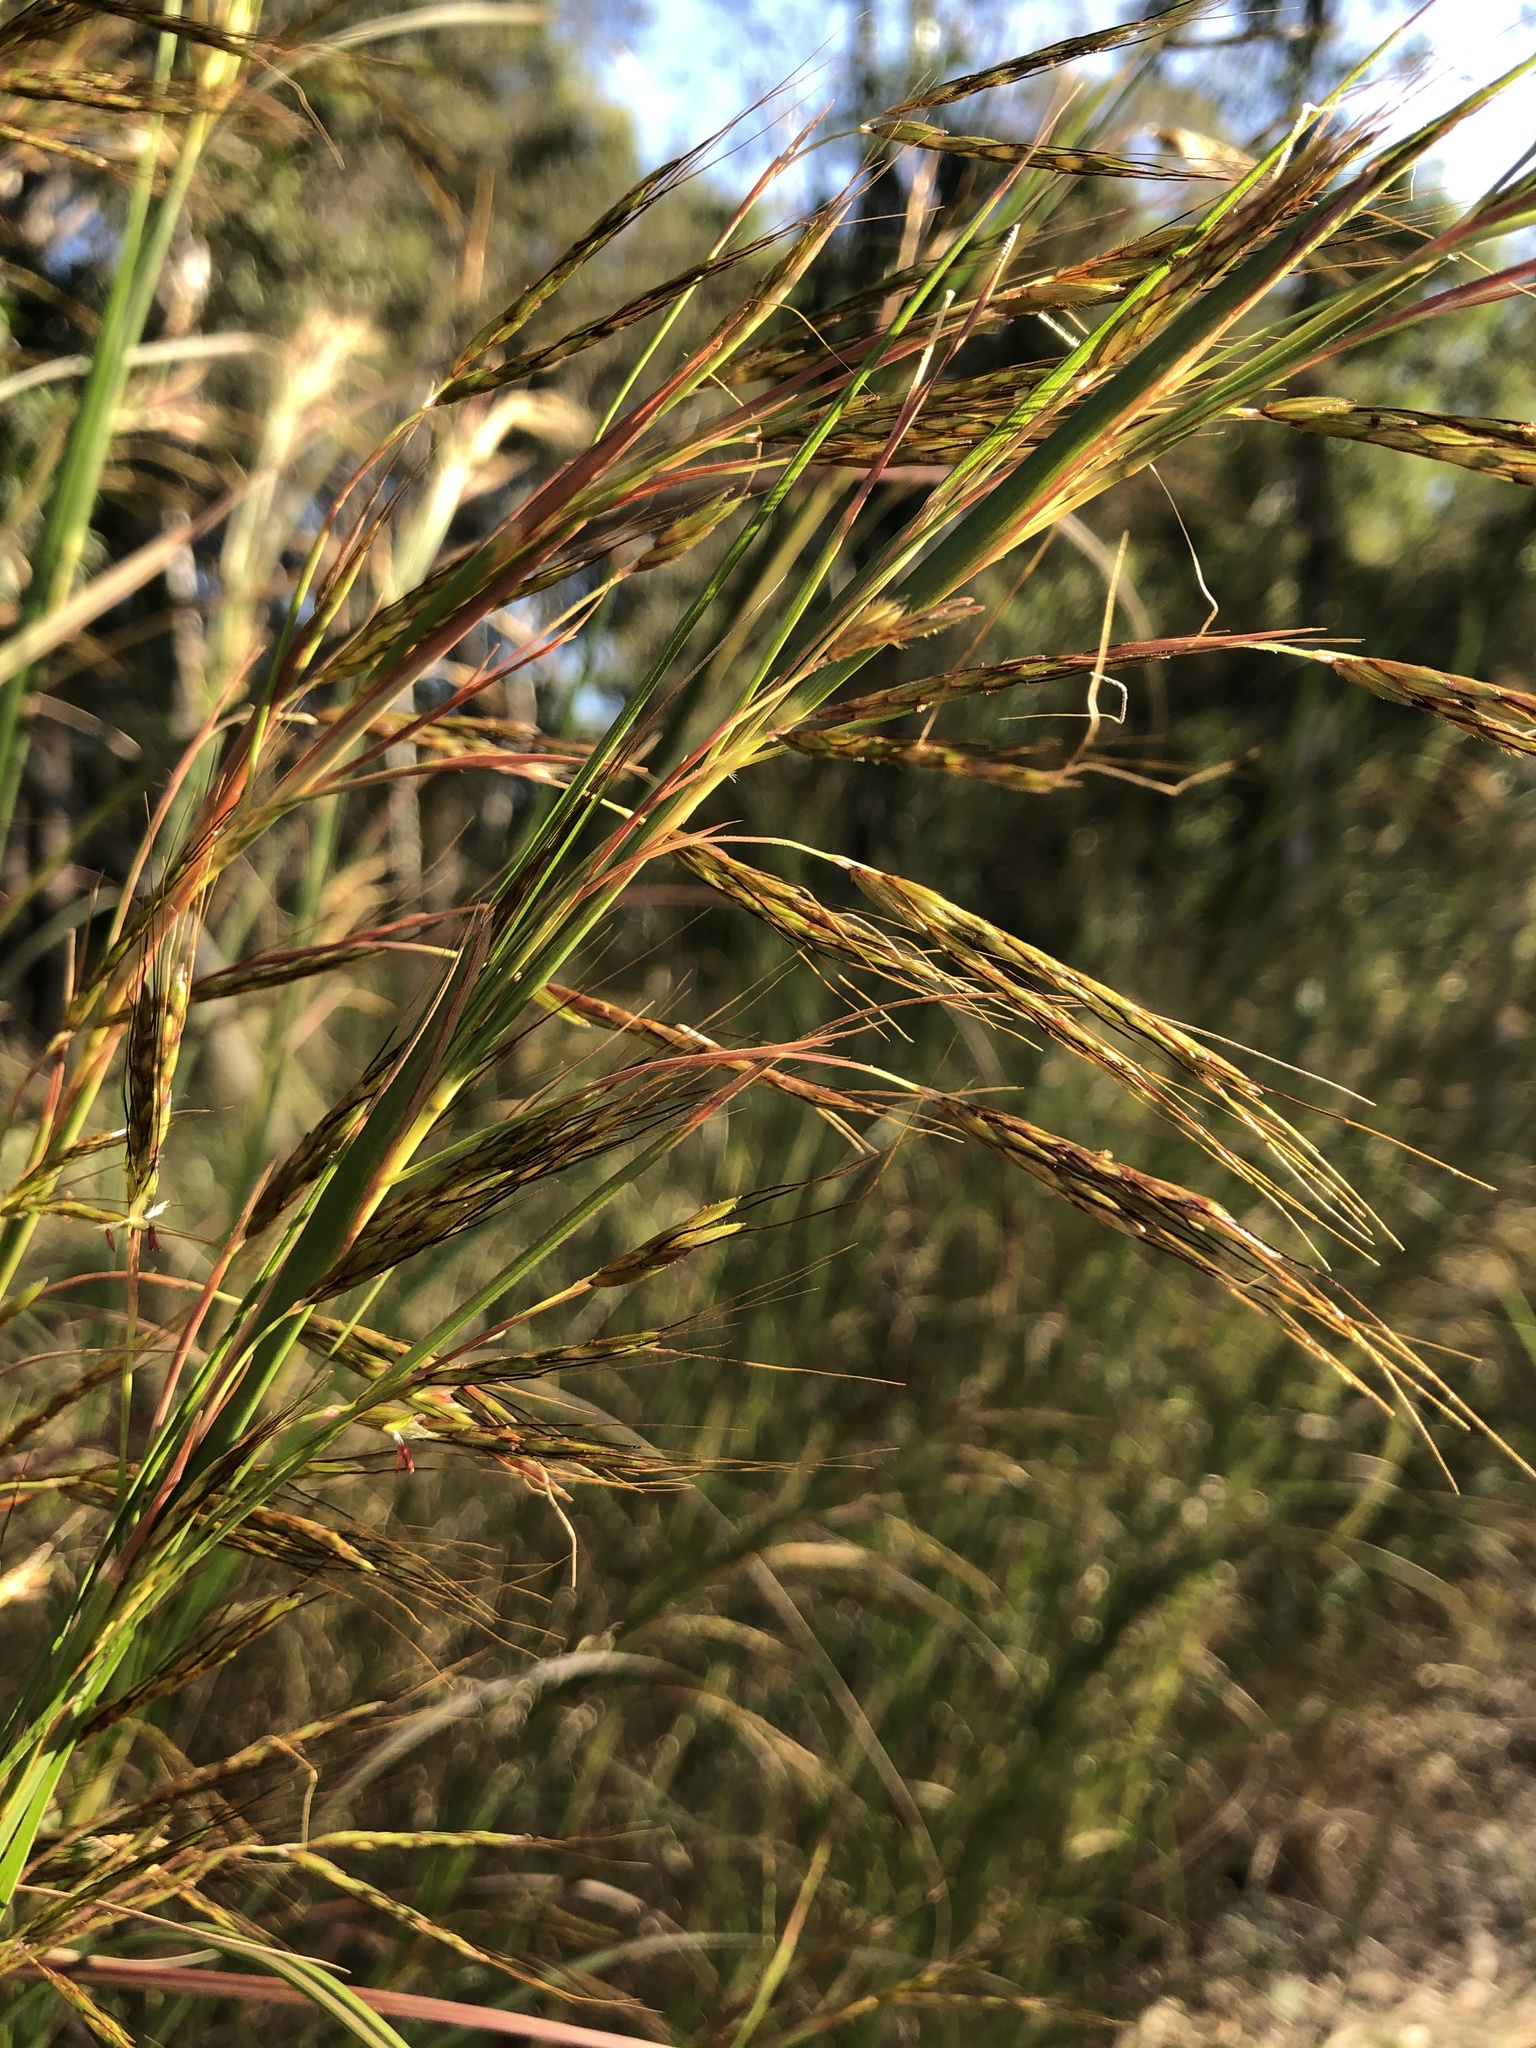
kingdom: Plantae
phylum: Tracheophyta
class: Liliopsida
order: Poales
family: Poaceae
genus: Hyparrhenia
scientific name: Hyparrhenia hirta
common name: Thatching grass
